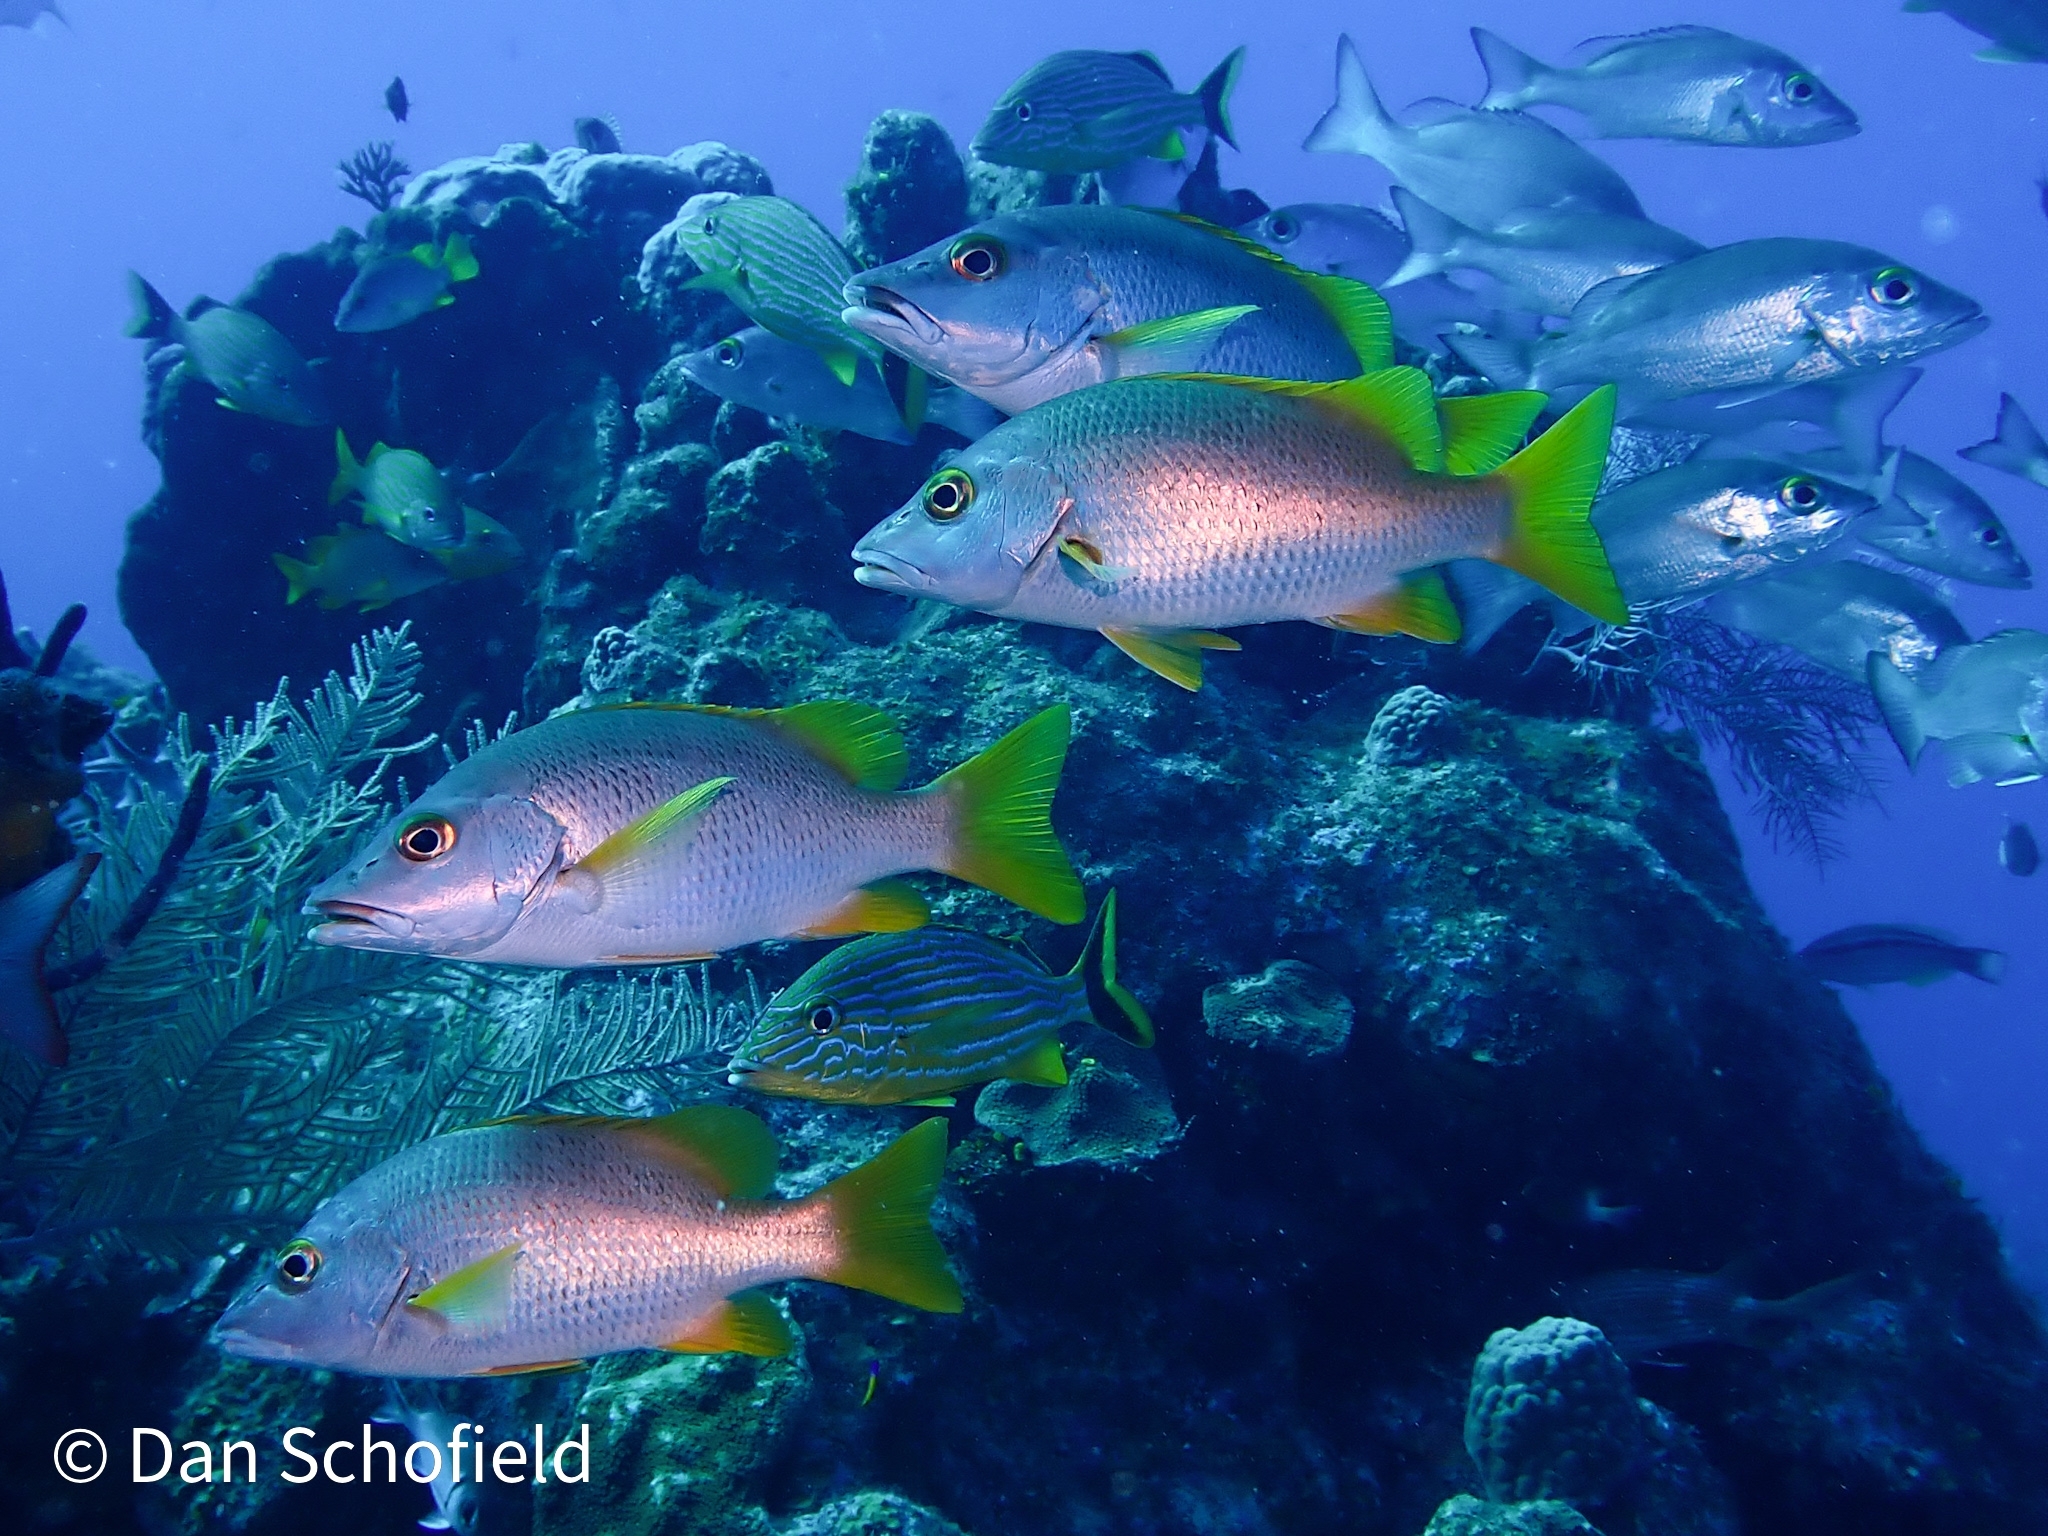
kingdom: Animalia
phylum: Chordata
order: Perciformes
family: Lutjanidae
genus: Lutjanus
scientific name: Lutjanus apodus
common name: Schoolmaster
